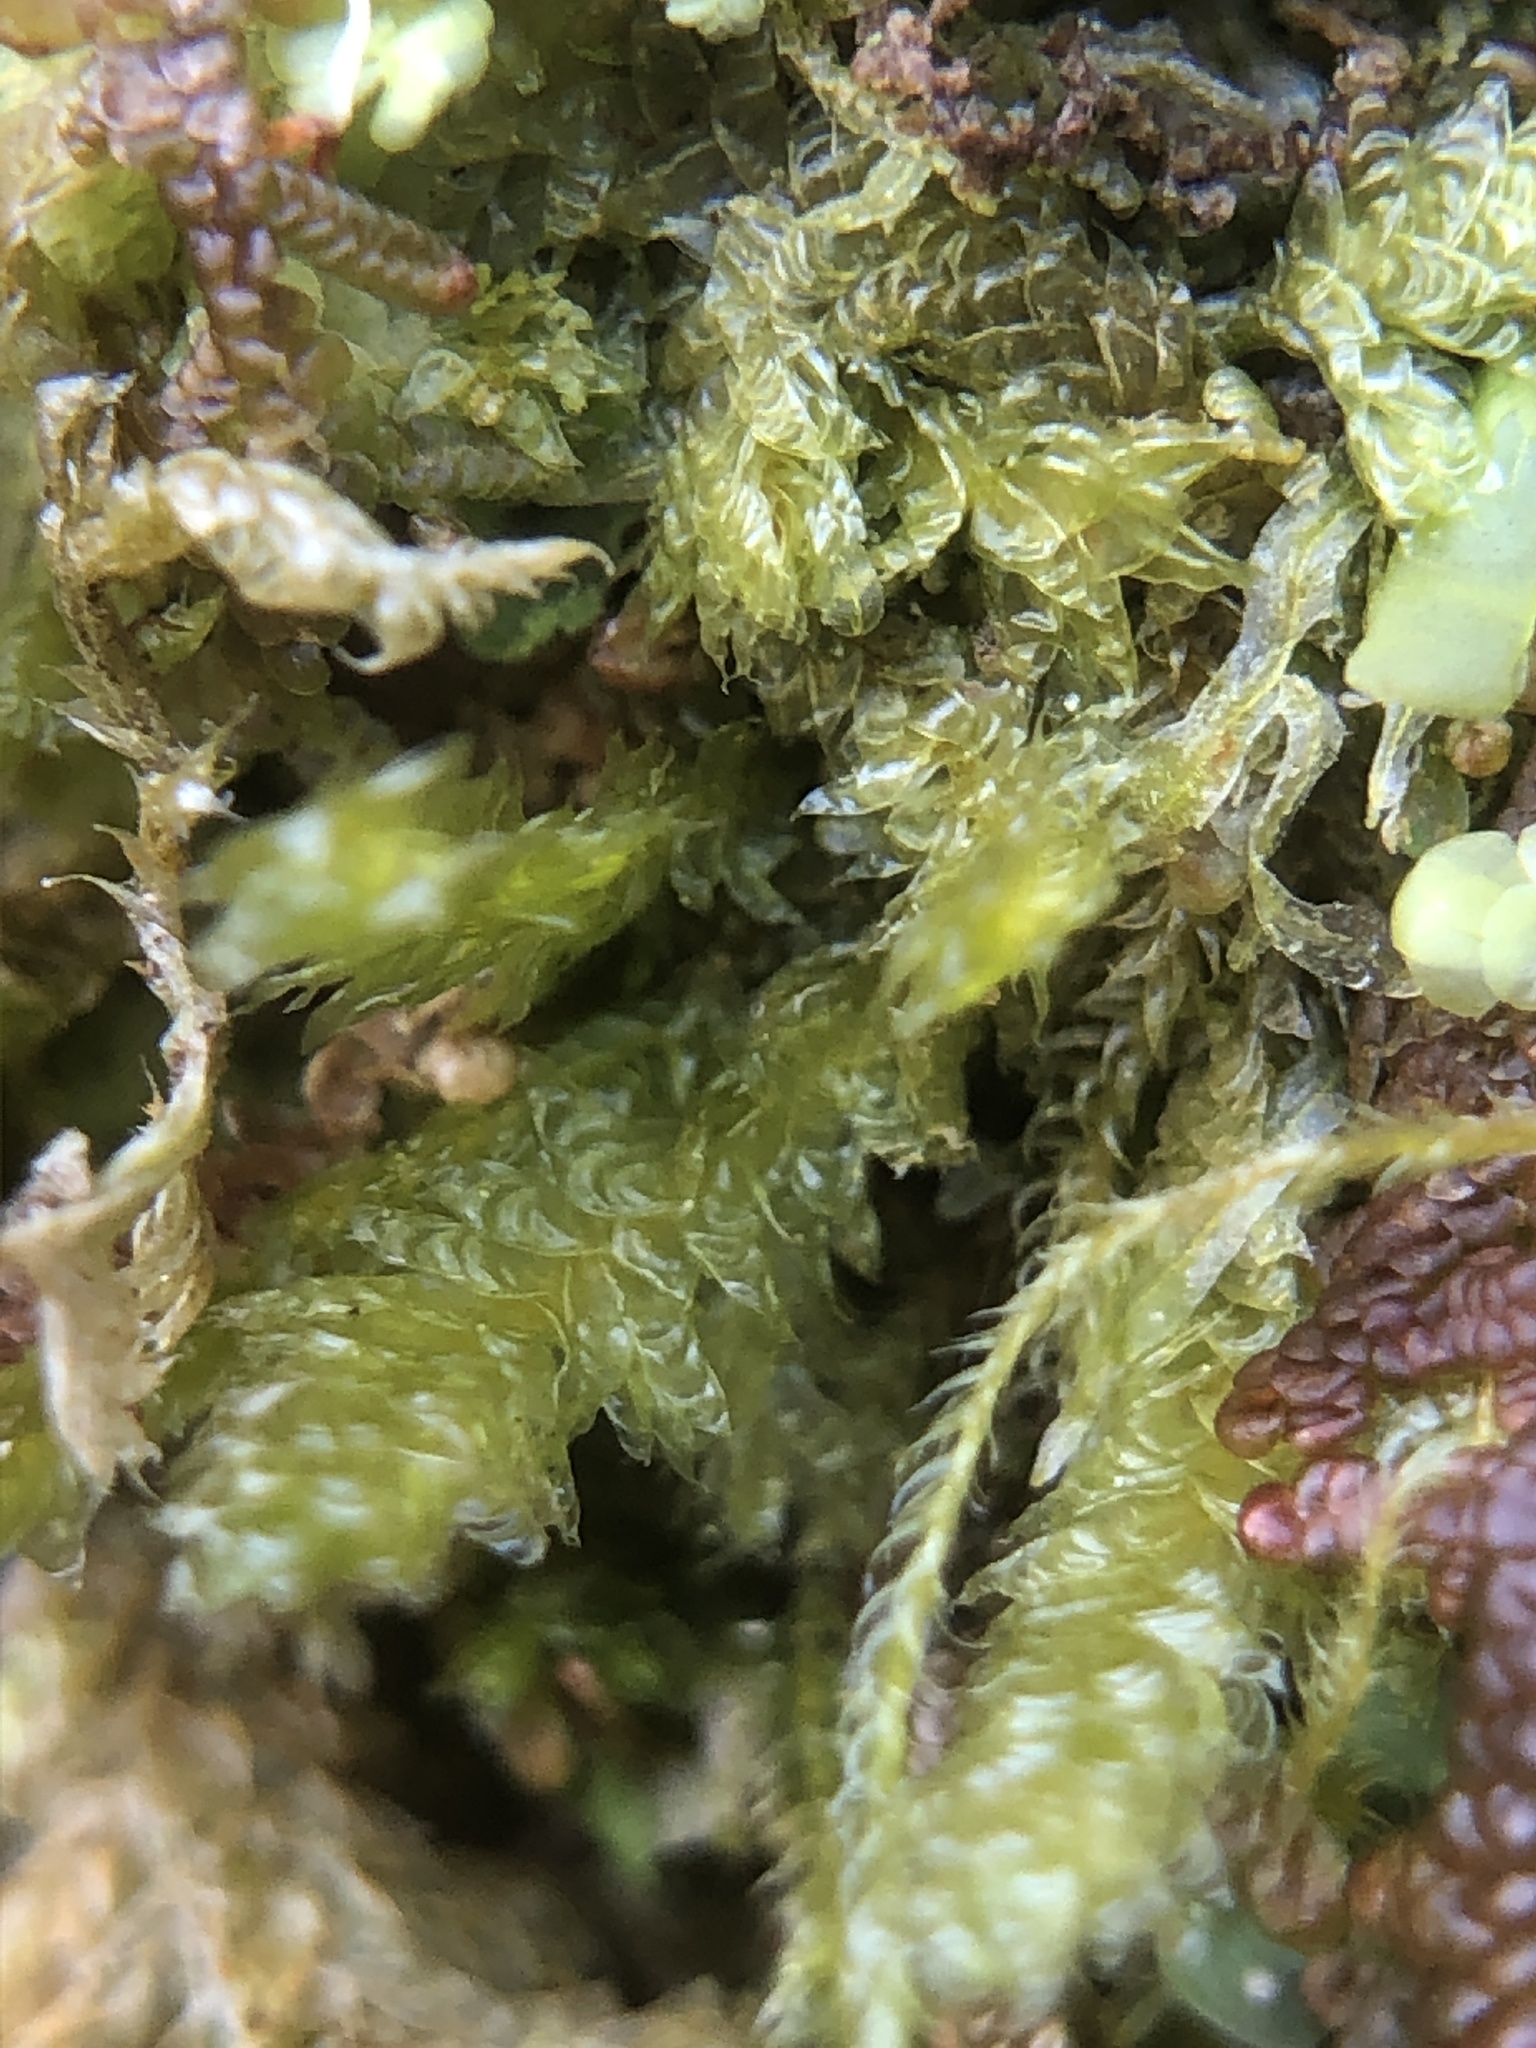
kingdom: Plantae
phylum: Bryophyta
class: Bryopsida
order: Hypnales
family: Neckeraceae
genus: Neckera
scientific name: Neckera pumila
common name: Dwarf neckera
